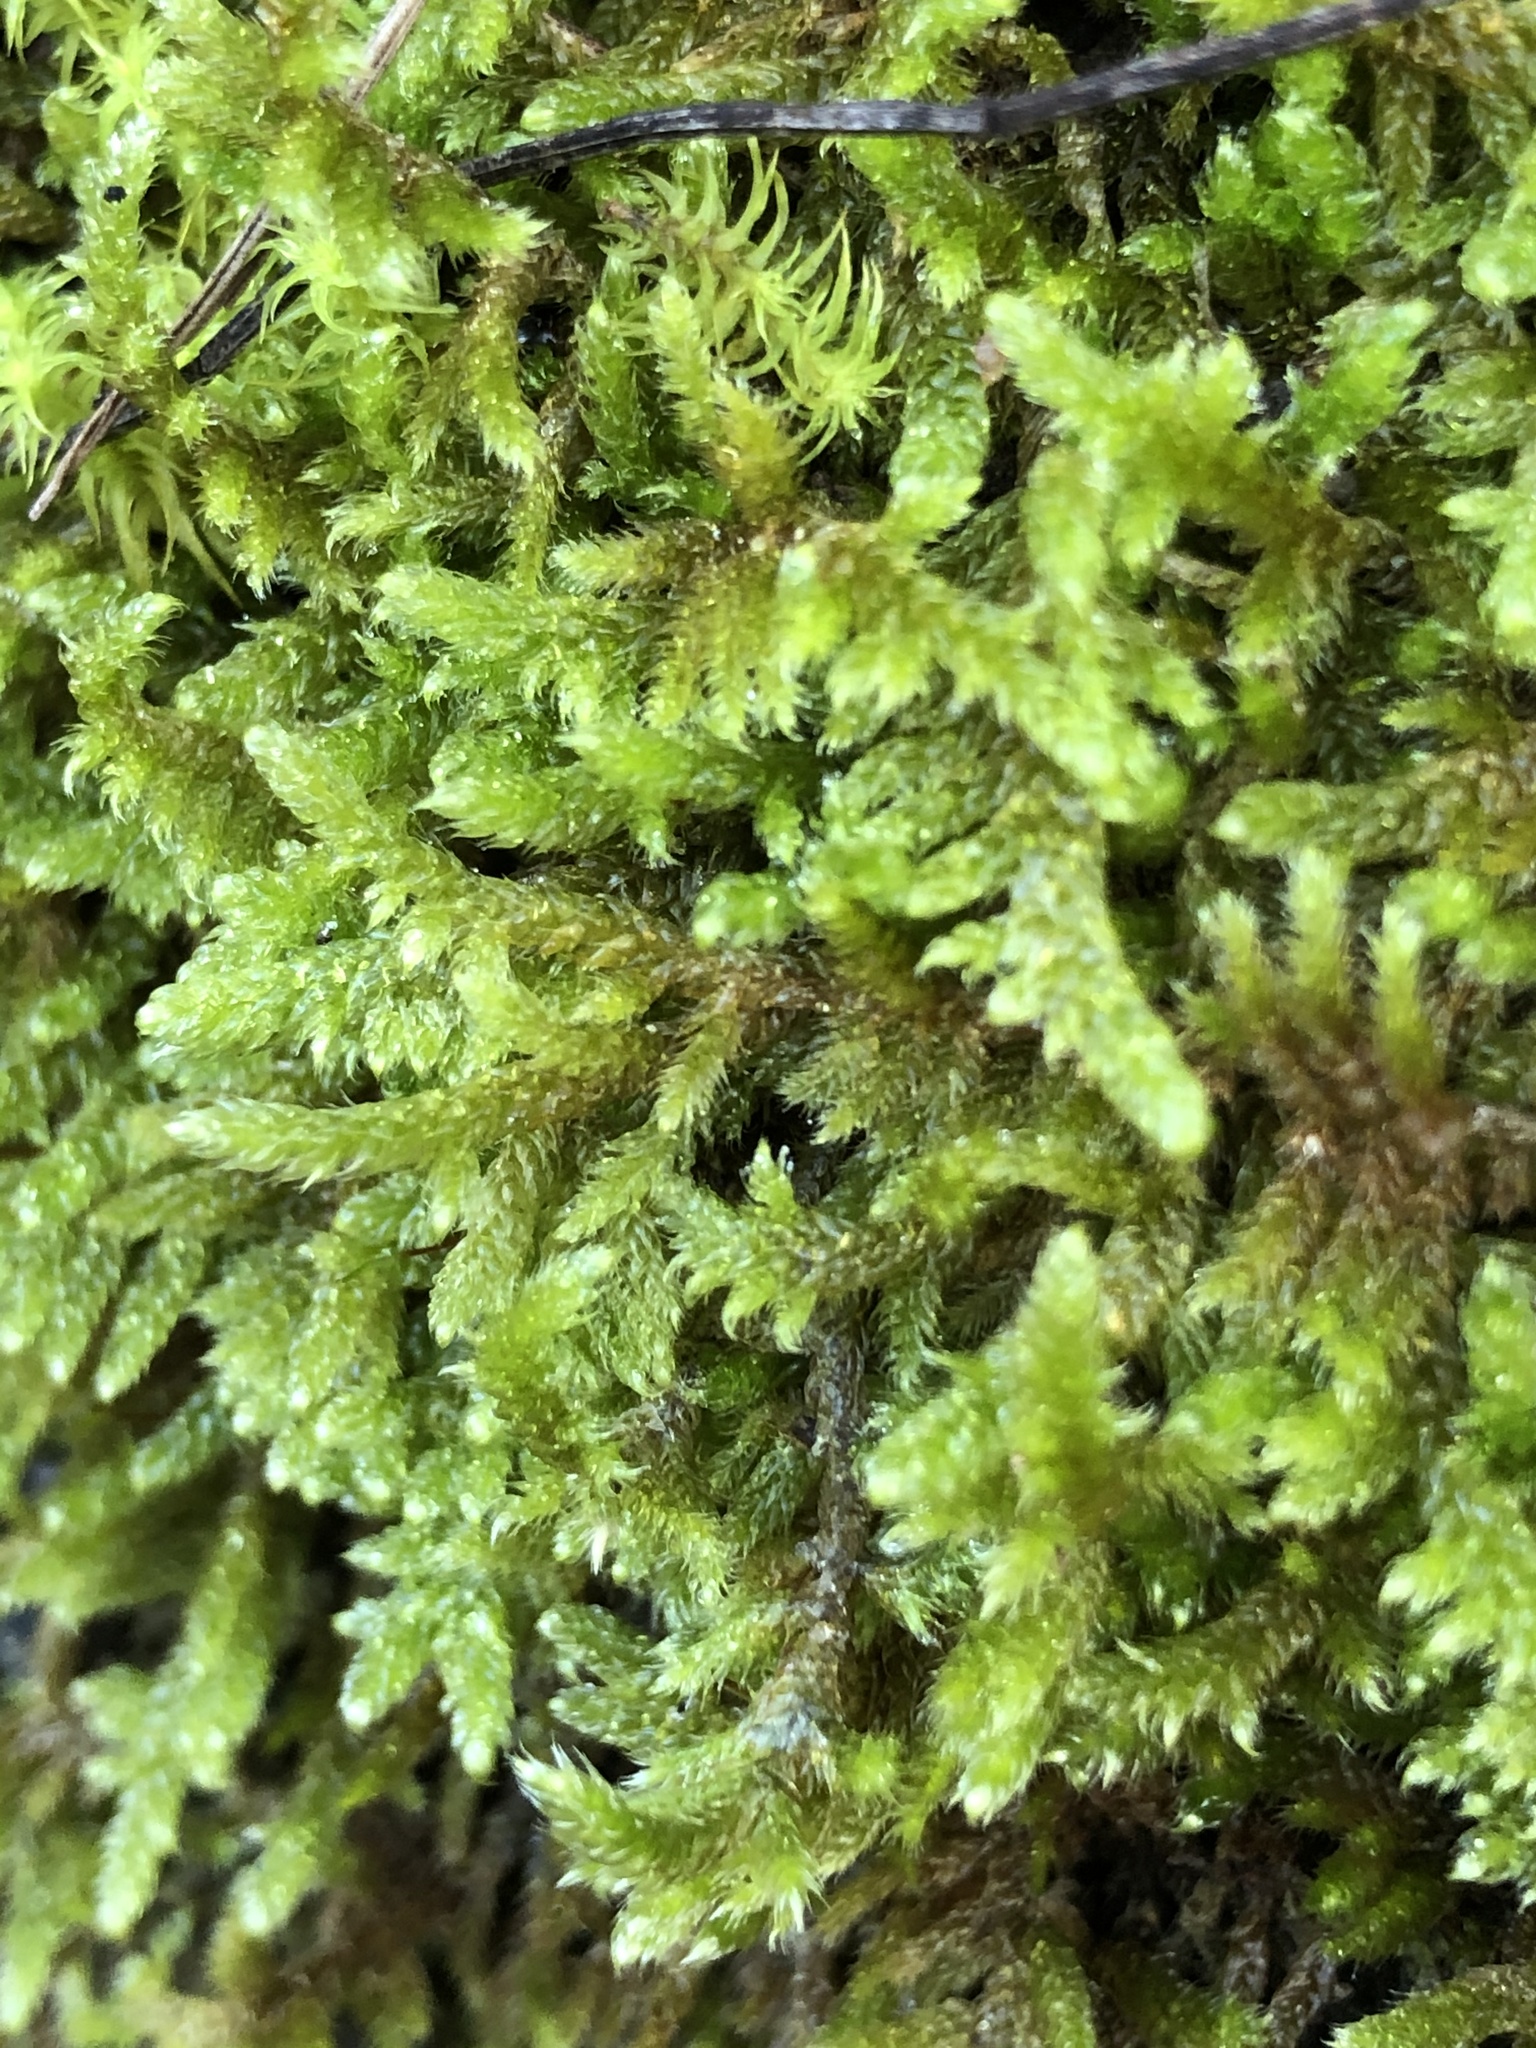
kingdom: Plantae
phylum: Bryophyta
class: Bryopsida
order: Hypnales
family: Hypnaceae
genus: Hypnum
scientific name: Hypnum cupressiforme
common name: Cypress-leaved plait-moss
